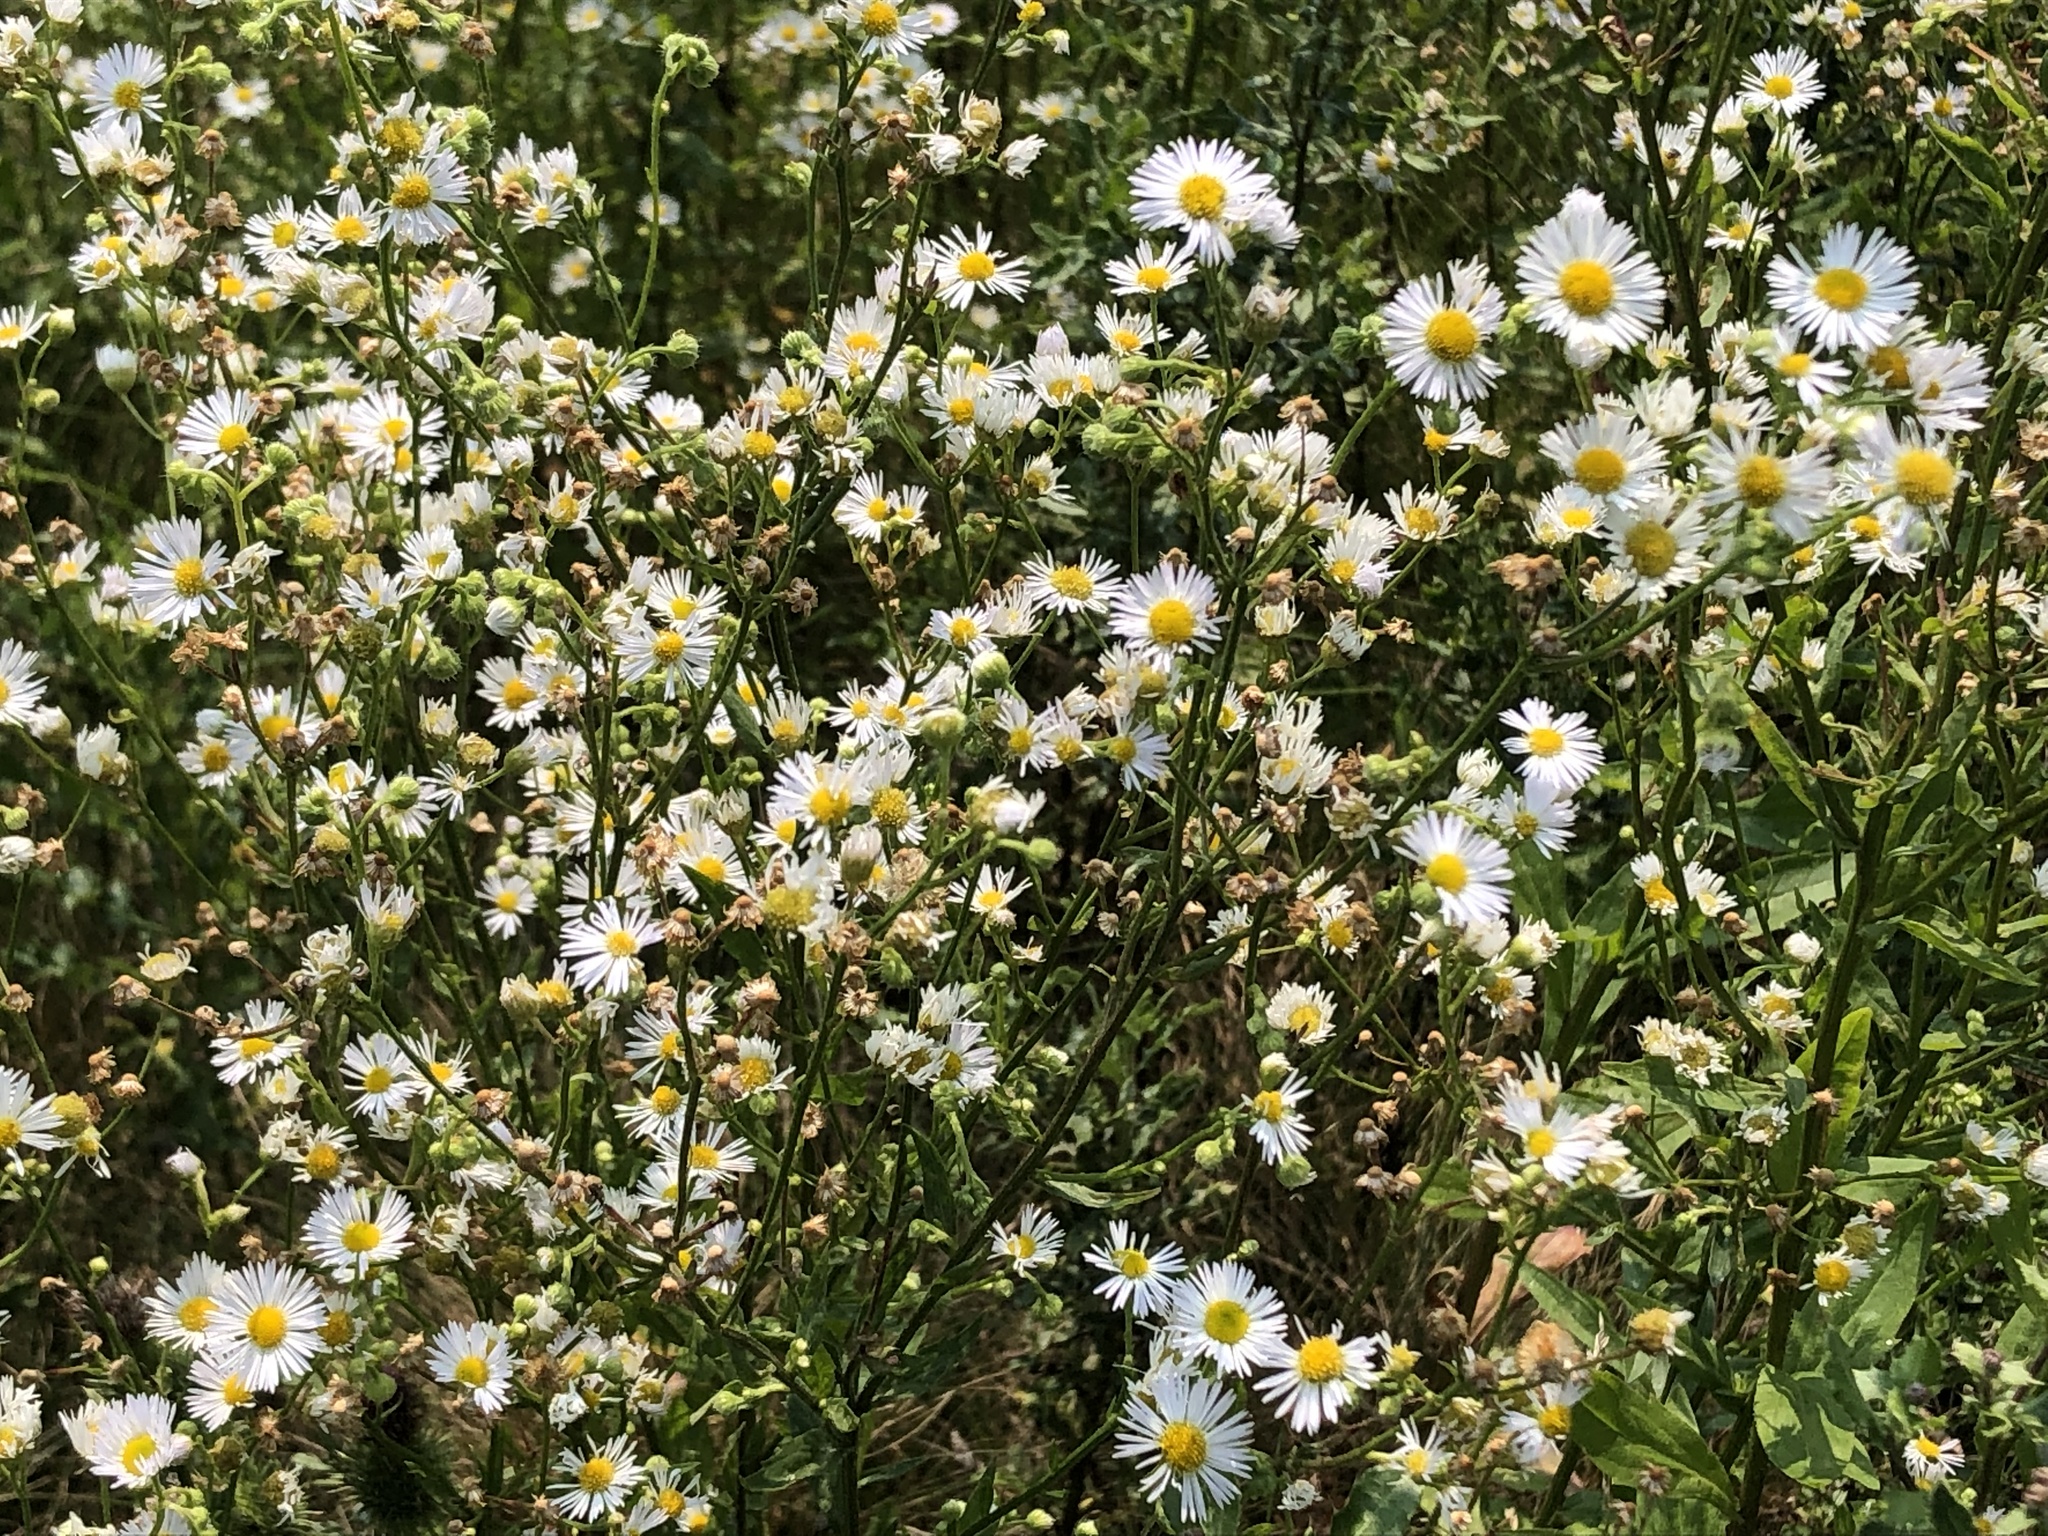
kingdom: Plantae
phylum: Tracheophyta
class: Magnoliopsida
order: Asterales
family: Asteraceae
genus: Erigeron
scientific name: Erigeron annuus
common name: Tall fleabane
